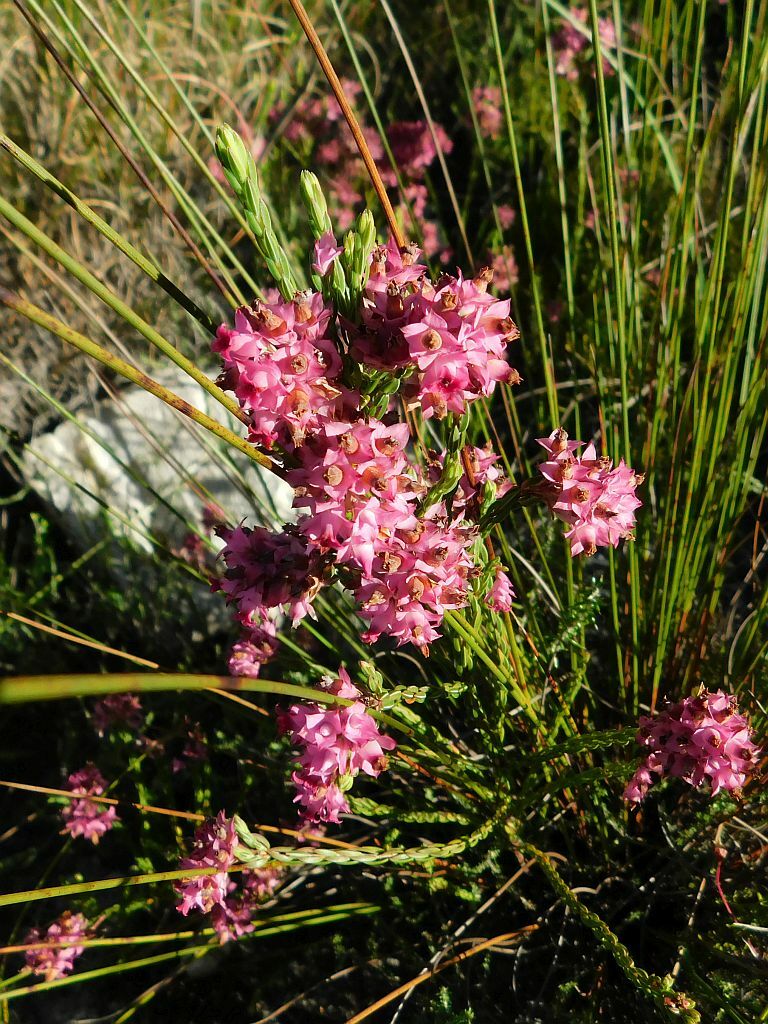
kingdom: Plantae
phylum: Tracheophyta
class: Magnoliopsida
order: Ericales
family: Ericaceae
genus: Erica
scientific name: Erica corifolia
